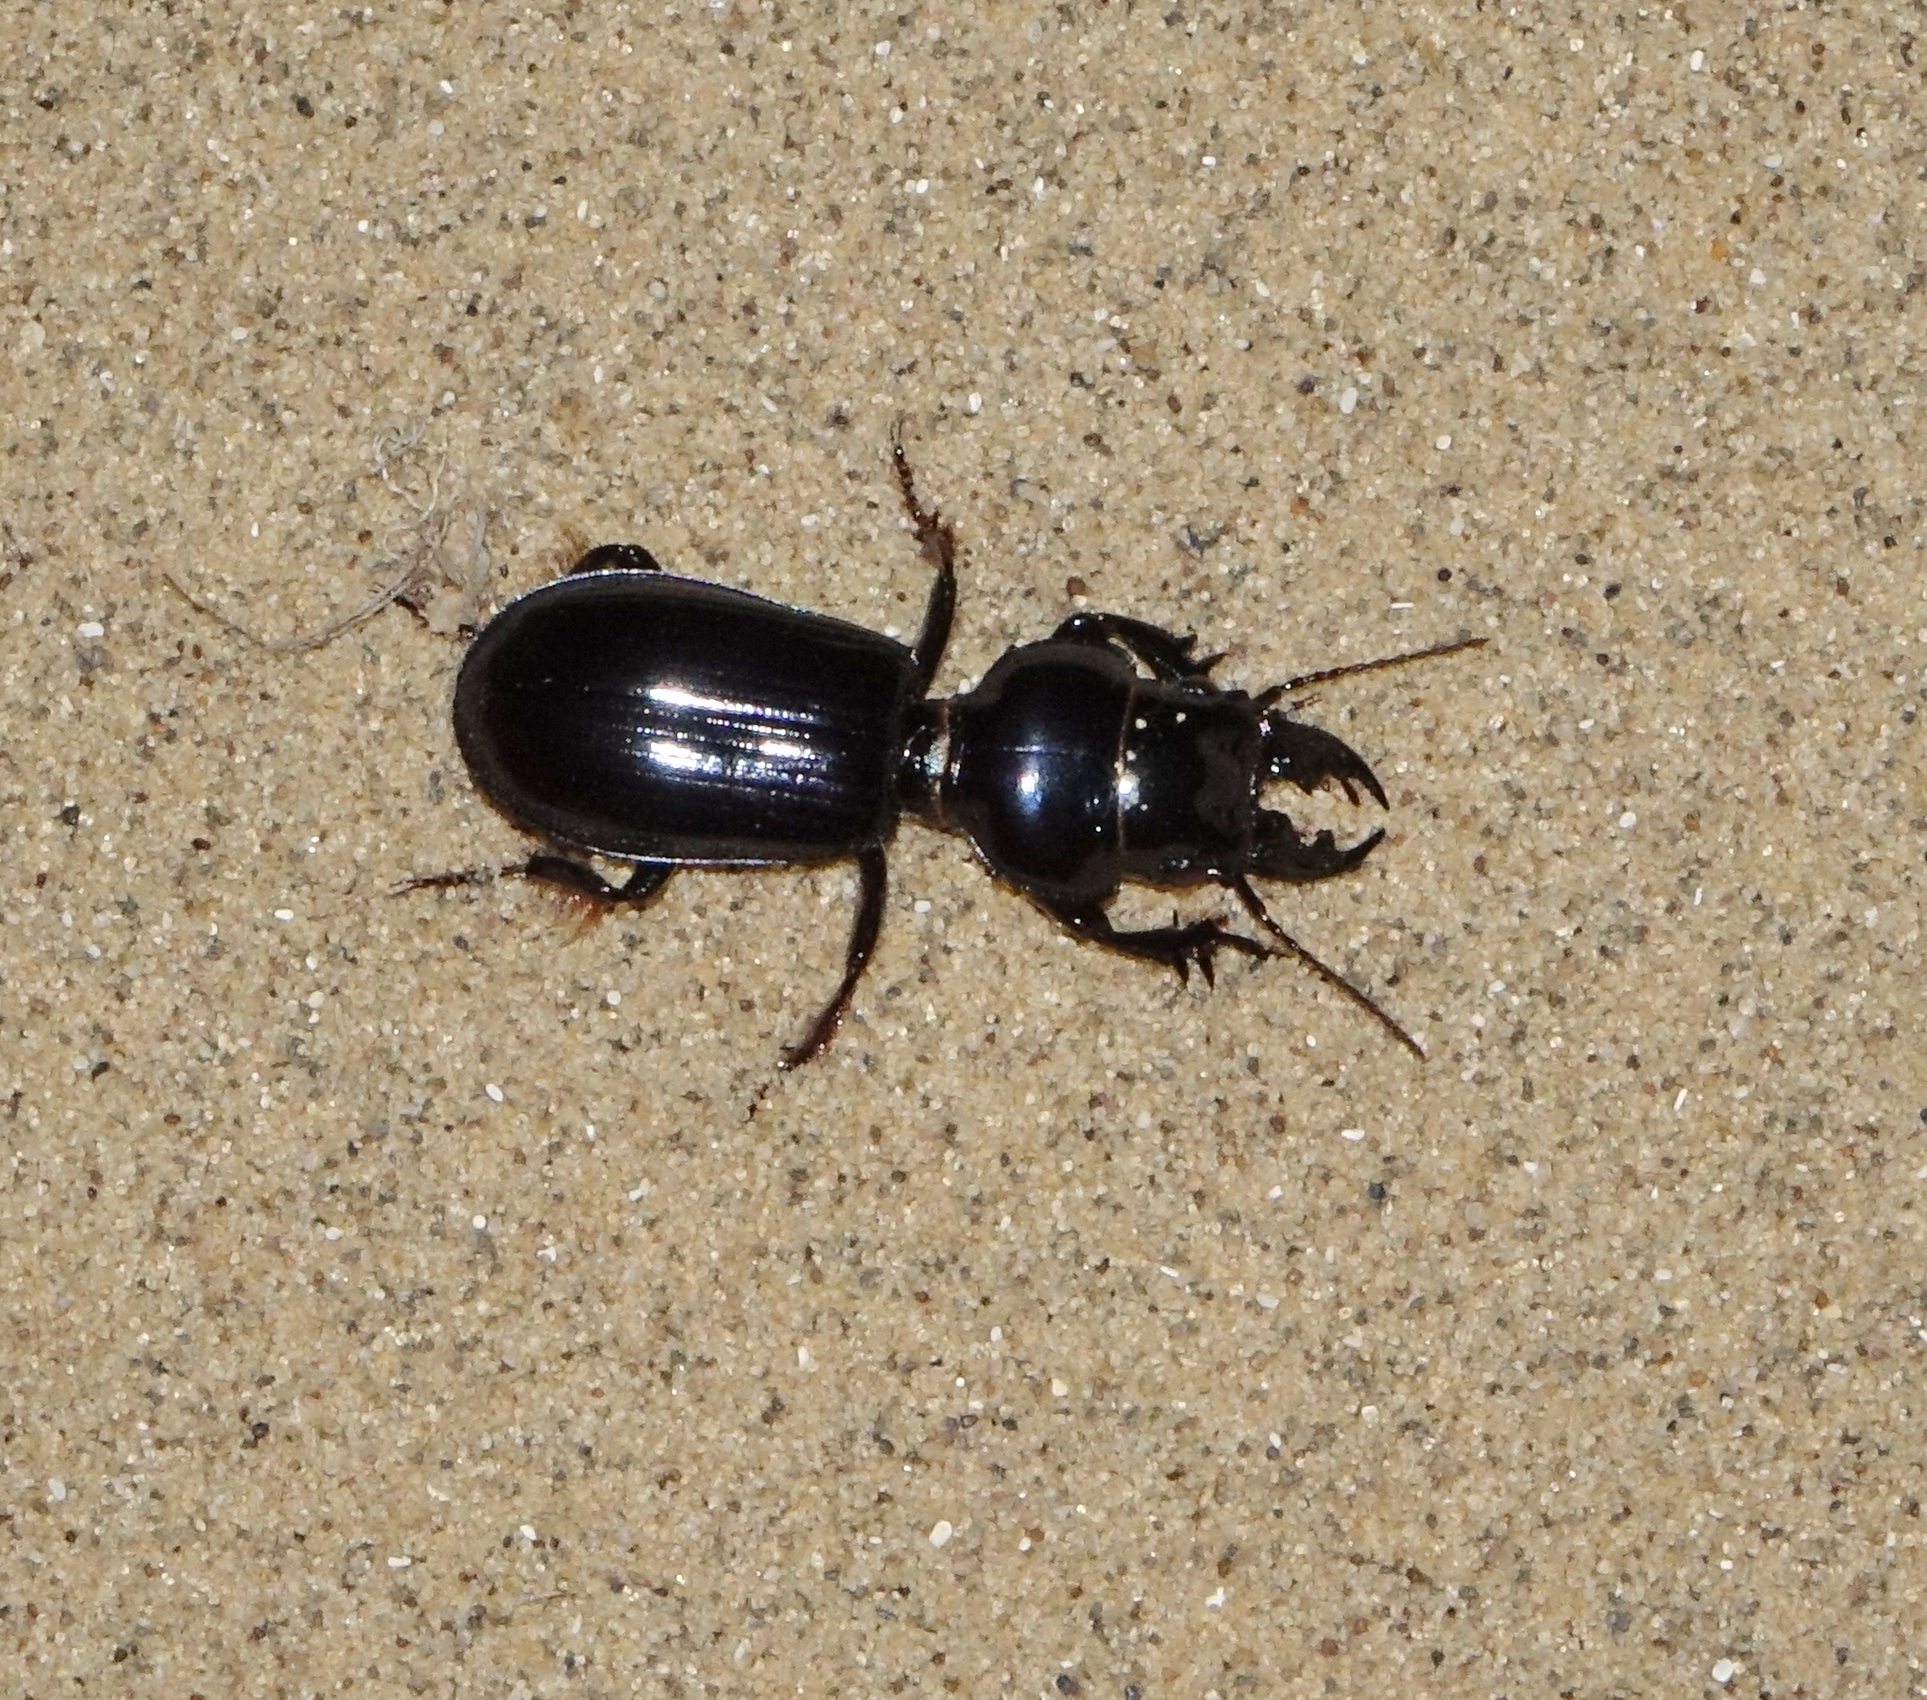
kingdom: Animalia
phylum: Arthropoda
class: Insecta
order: Coleoptera
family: Carabidae
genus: Scarites
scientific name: Scarites bucida
